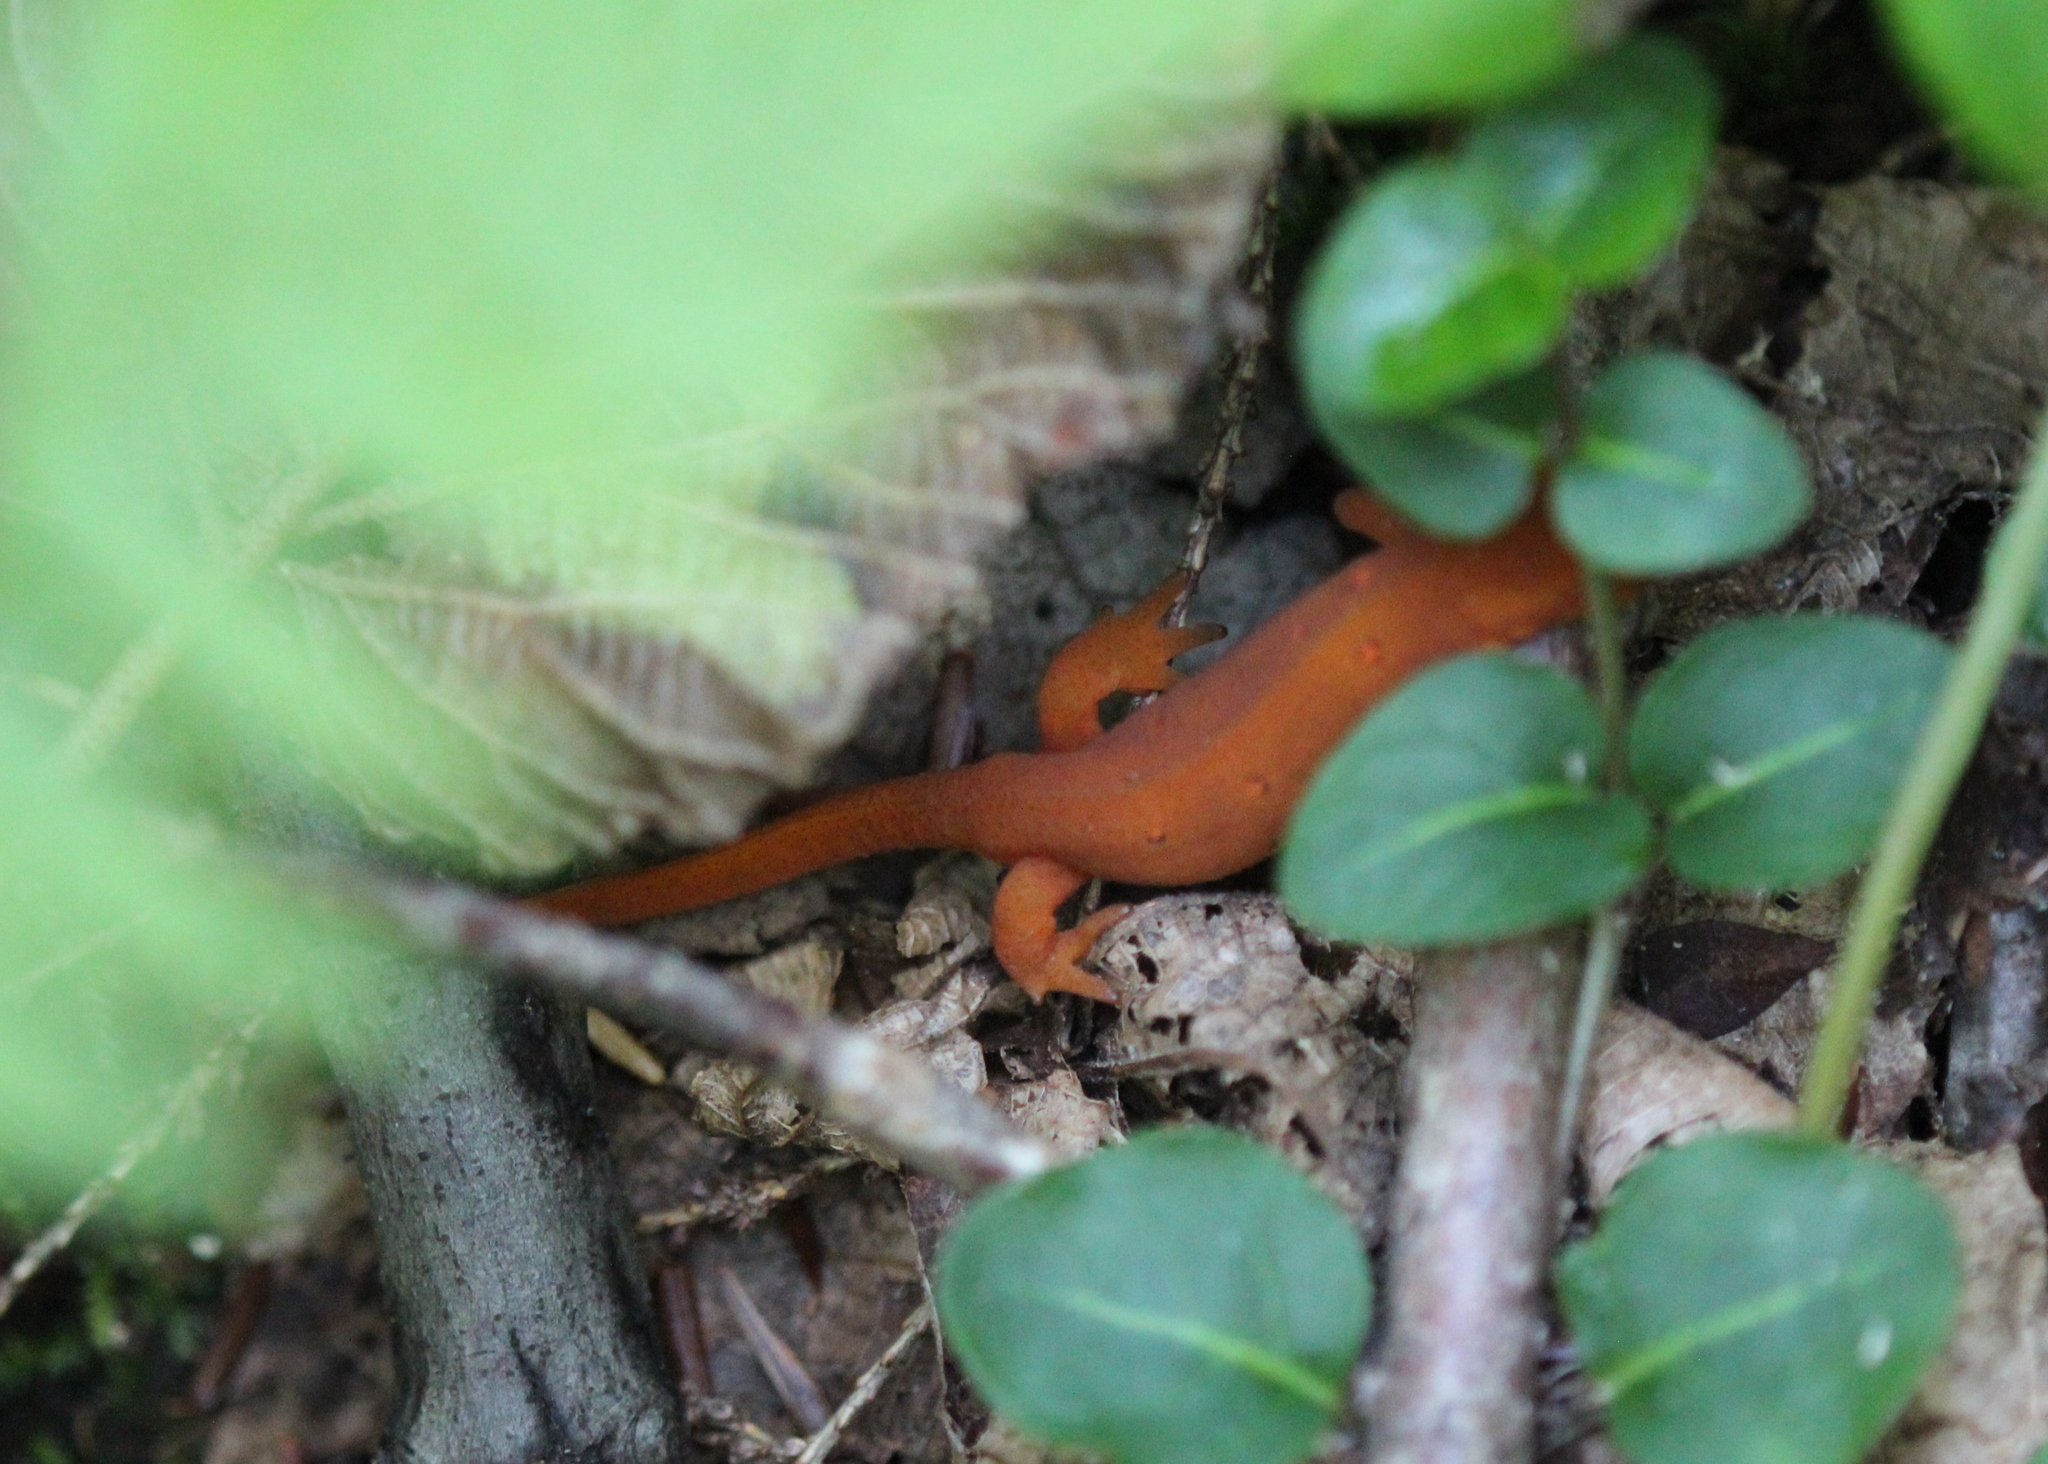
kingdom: Animalia
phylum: Chordata
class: Amphibia
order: Caudata
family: Salamandridae
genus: Notophthalmus
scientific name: Notophthalmus viridescens
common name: Eastern newt
